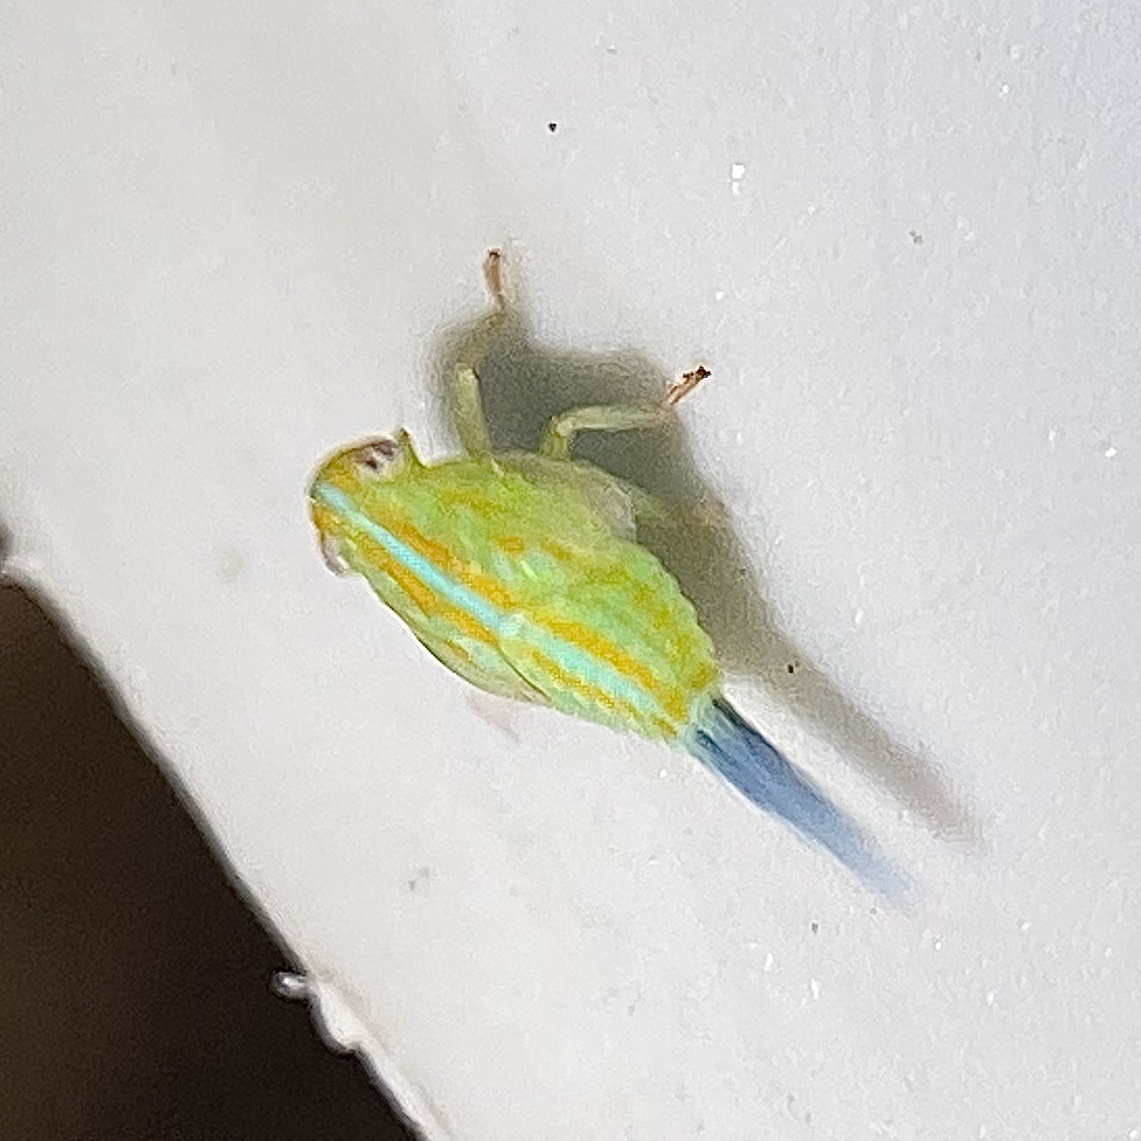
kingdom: Animalia
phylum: Arthropoda
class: Insecta
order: Hemiptera
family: Issidae
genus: Aplos
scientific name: Aplos simplex
